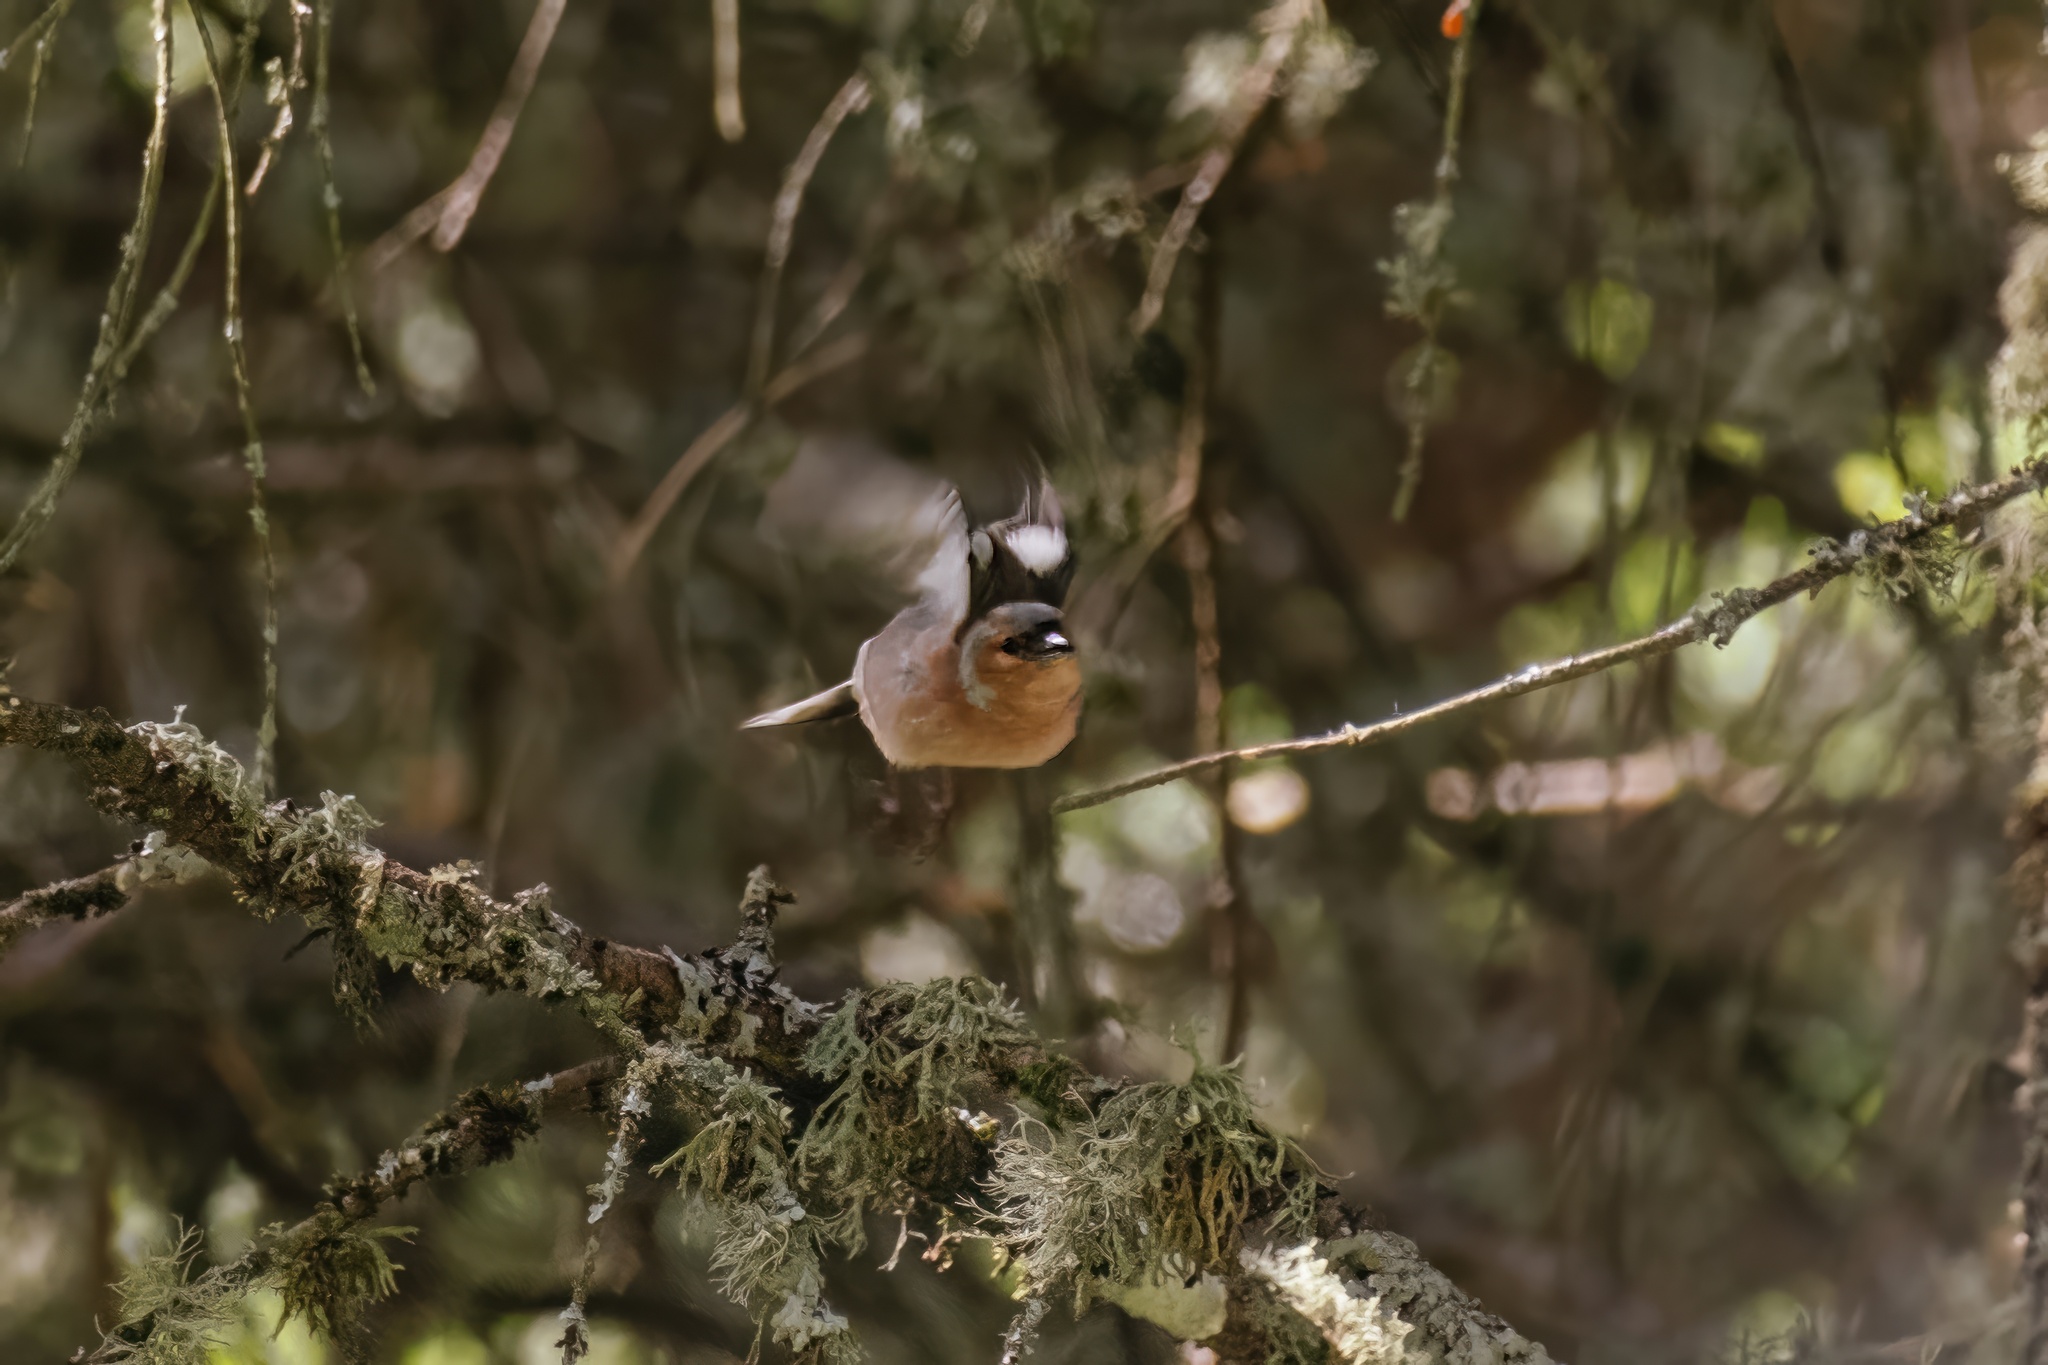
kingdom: Animalia
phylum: Chordata
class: Aves
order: Passeriformes
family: Fringillidae
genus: Fringilla
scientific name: Fringilla coelebs
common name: Common chaffinch
